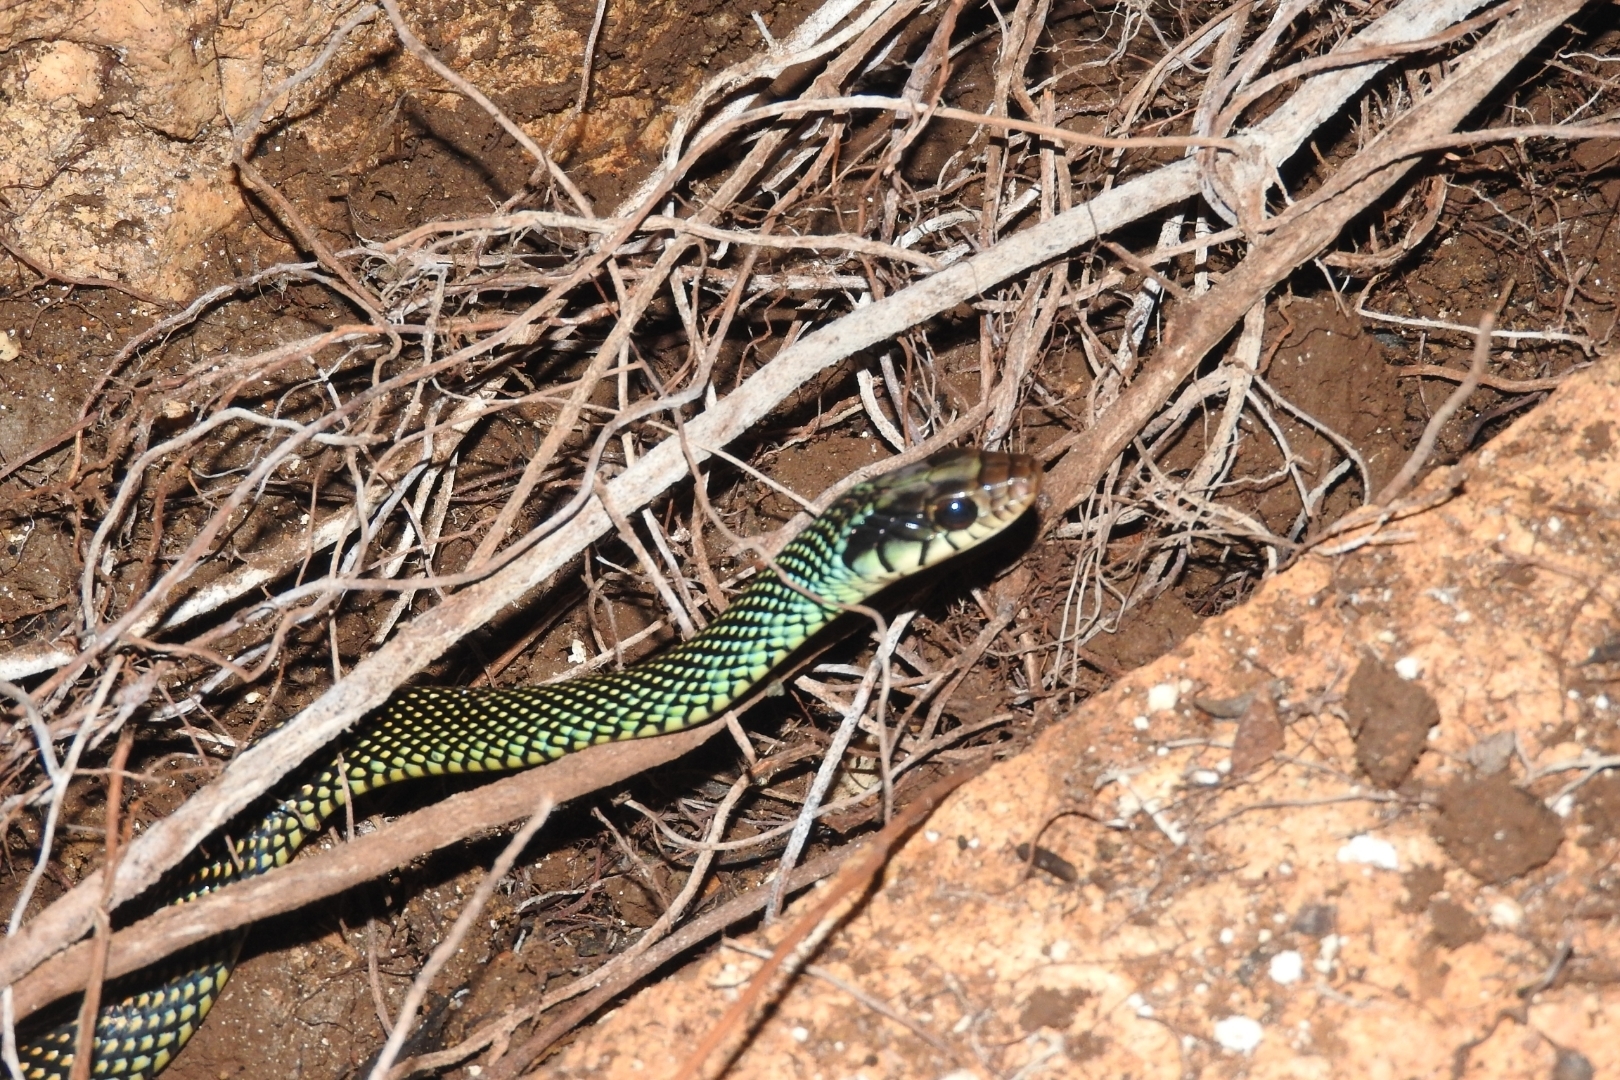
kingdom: Animalia
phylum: Chordata
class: Squamata
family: Colubridae
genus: Drymobius
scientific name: Drymobius margaritiferus
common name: Central american speckled racer
